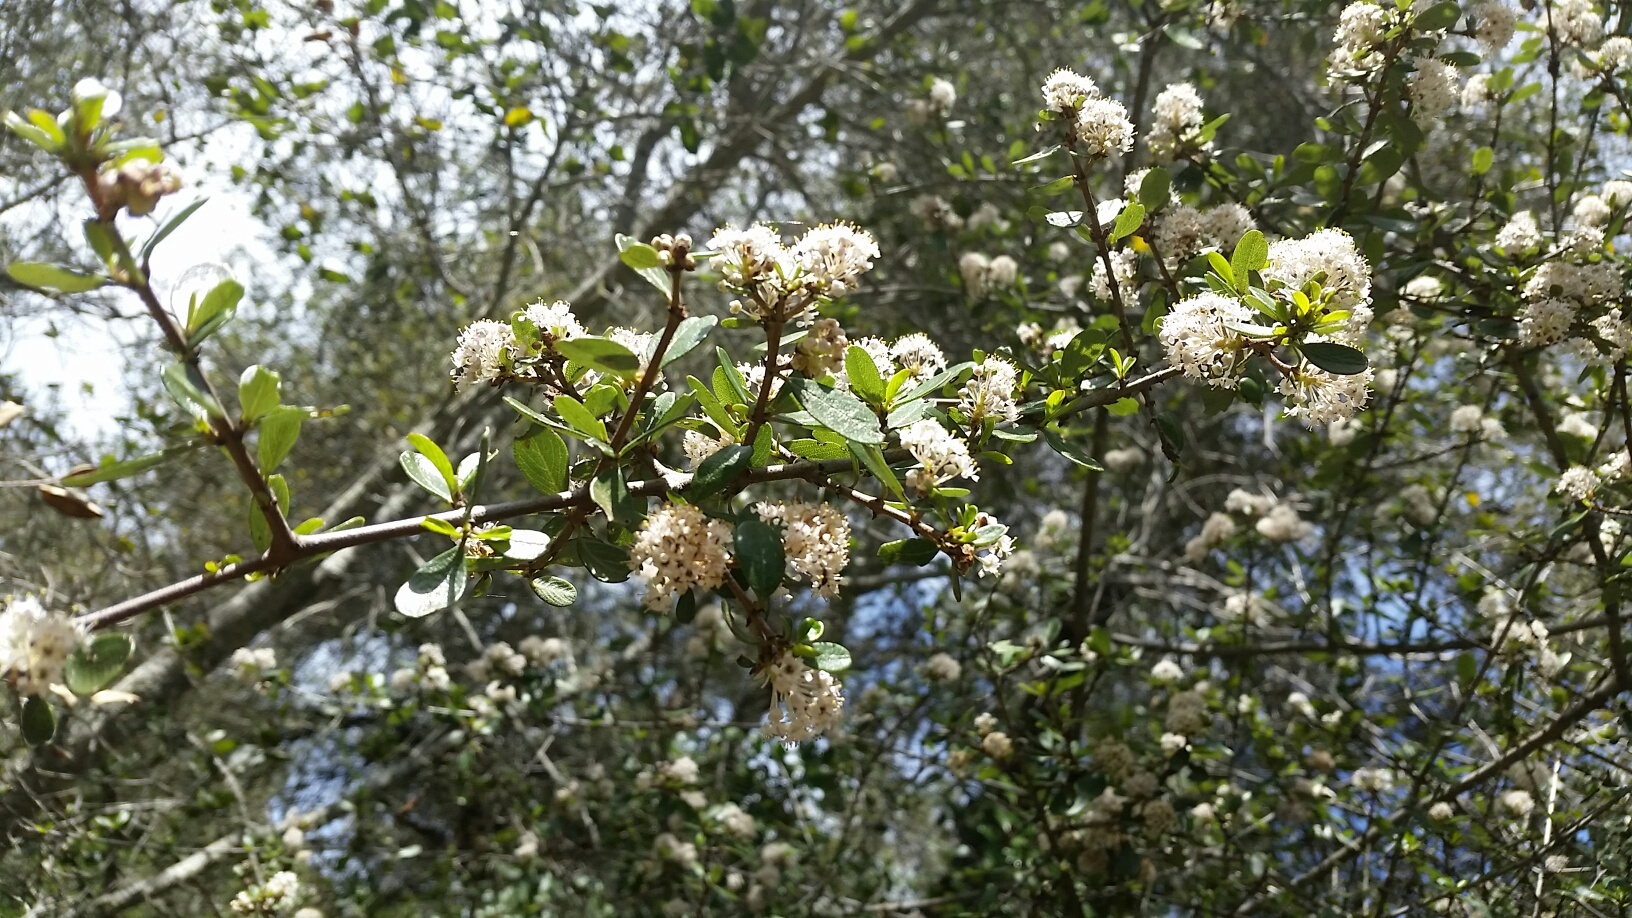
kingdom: Plantae
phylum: Tracheophyta
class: Magnoliopsida
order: Rosales
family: Rhamnaceae
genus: Ceanothus
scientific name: Ceanothus cuneatus
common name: Cuneate ceanothus
